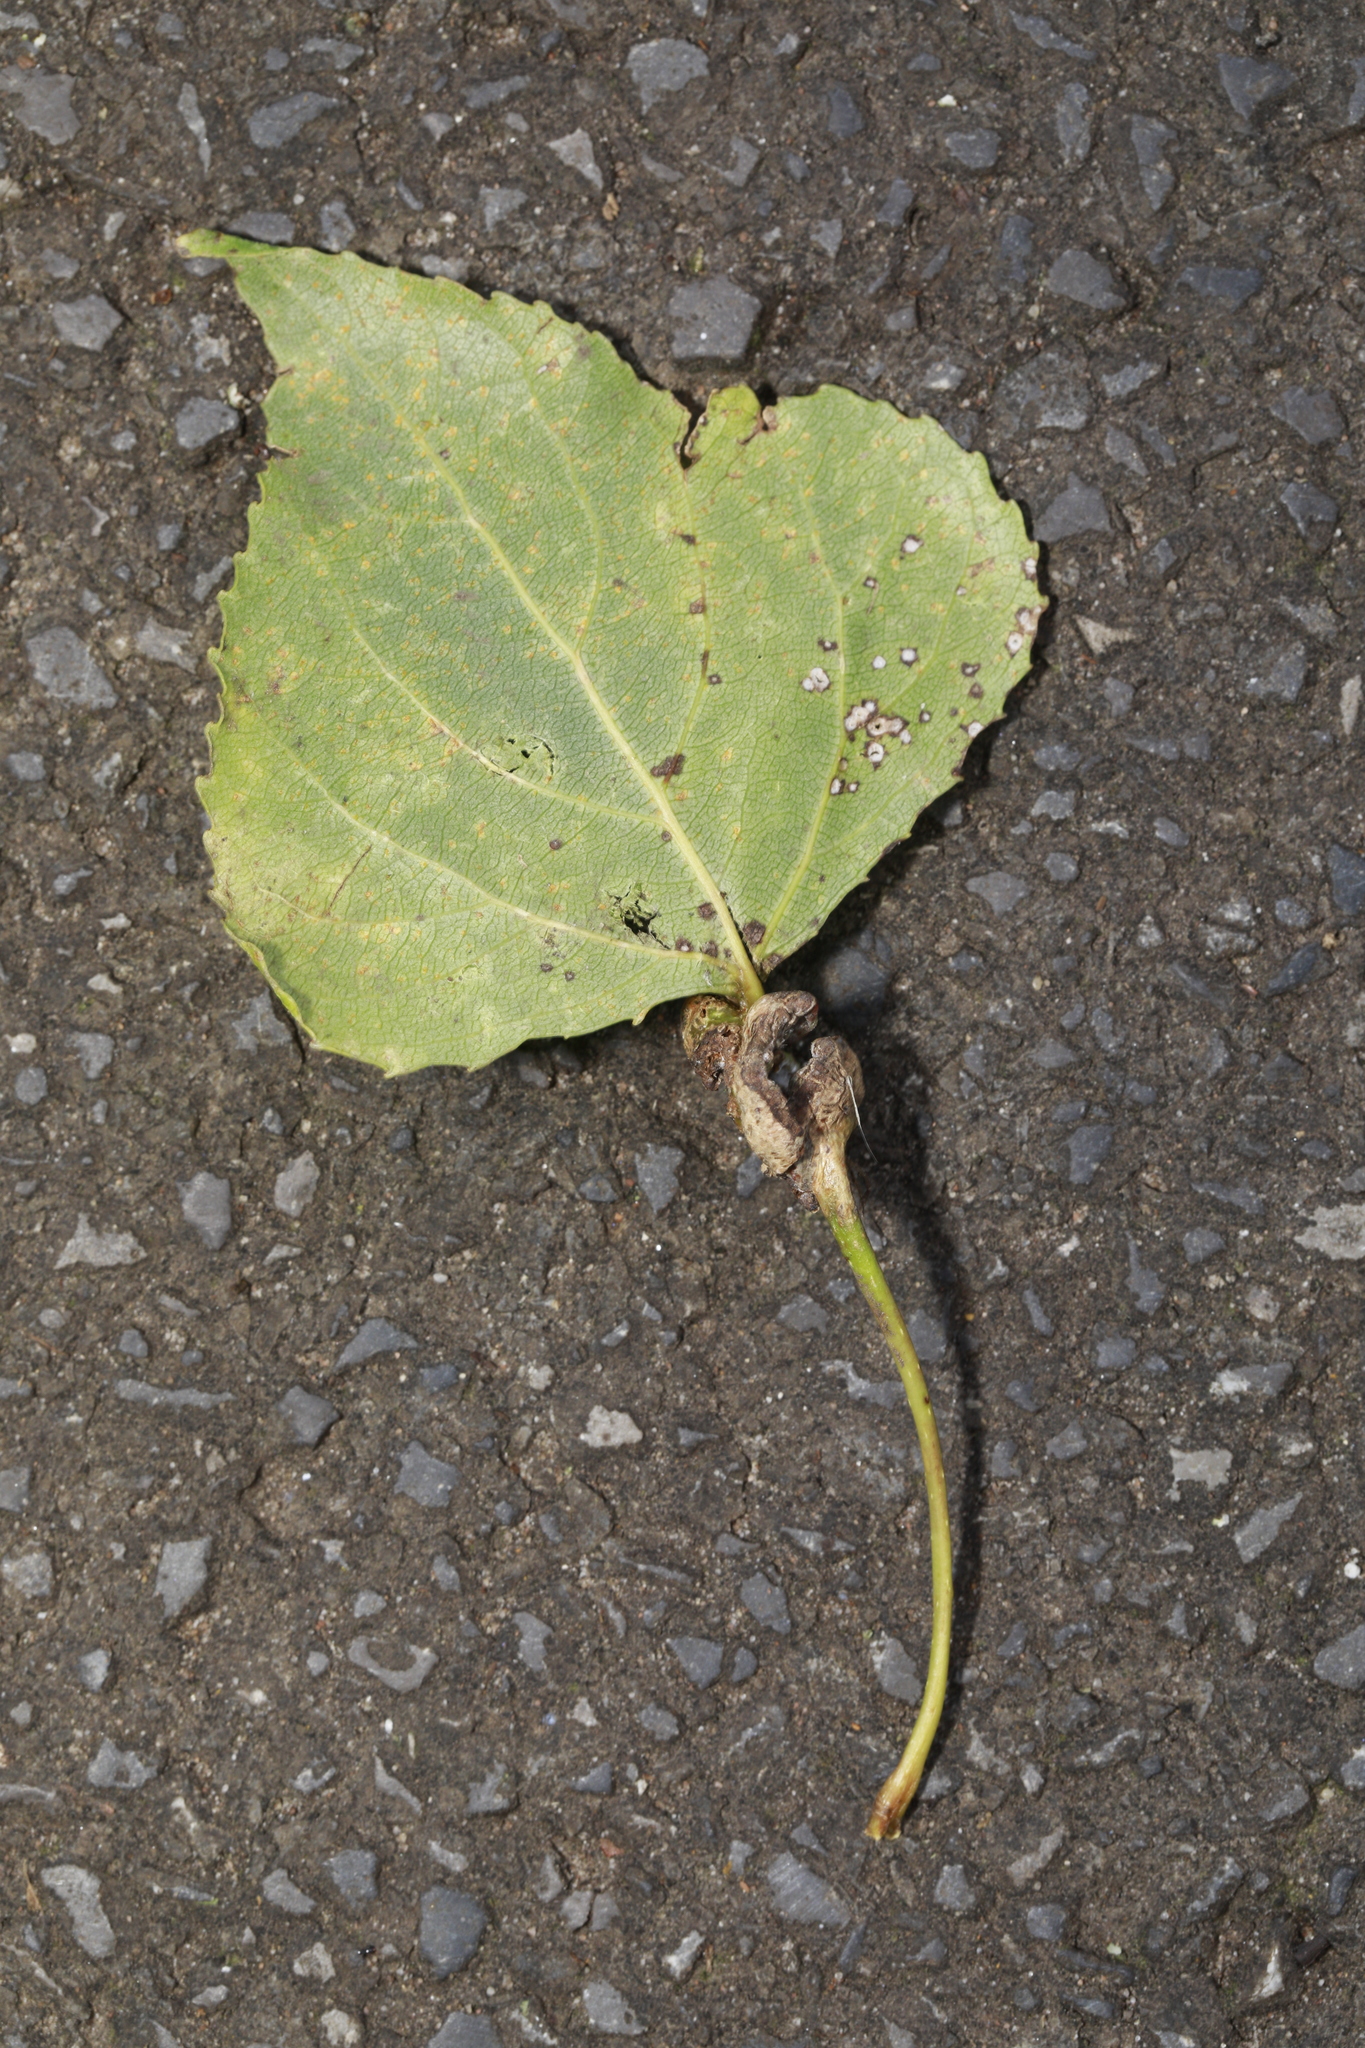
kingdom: Animalia
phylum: Arthropoda
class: Insecta
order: Hemiptera
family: Aphididae
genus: Pemphigus
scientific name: Pemphigus spyrothecae
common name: Aphid
